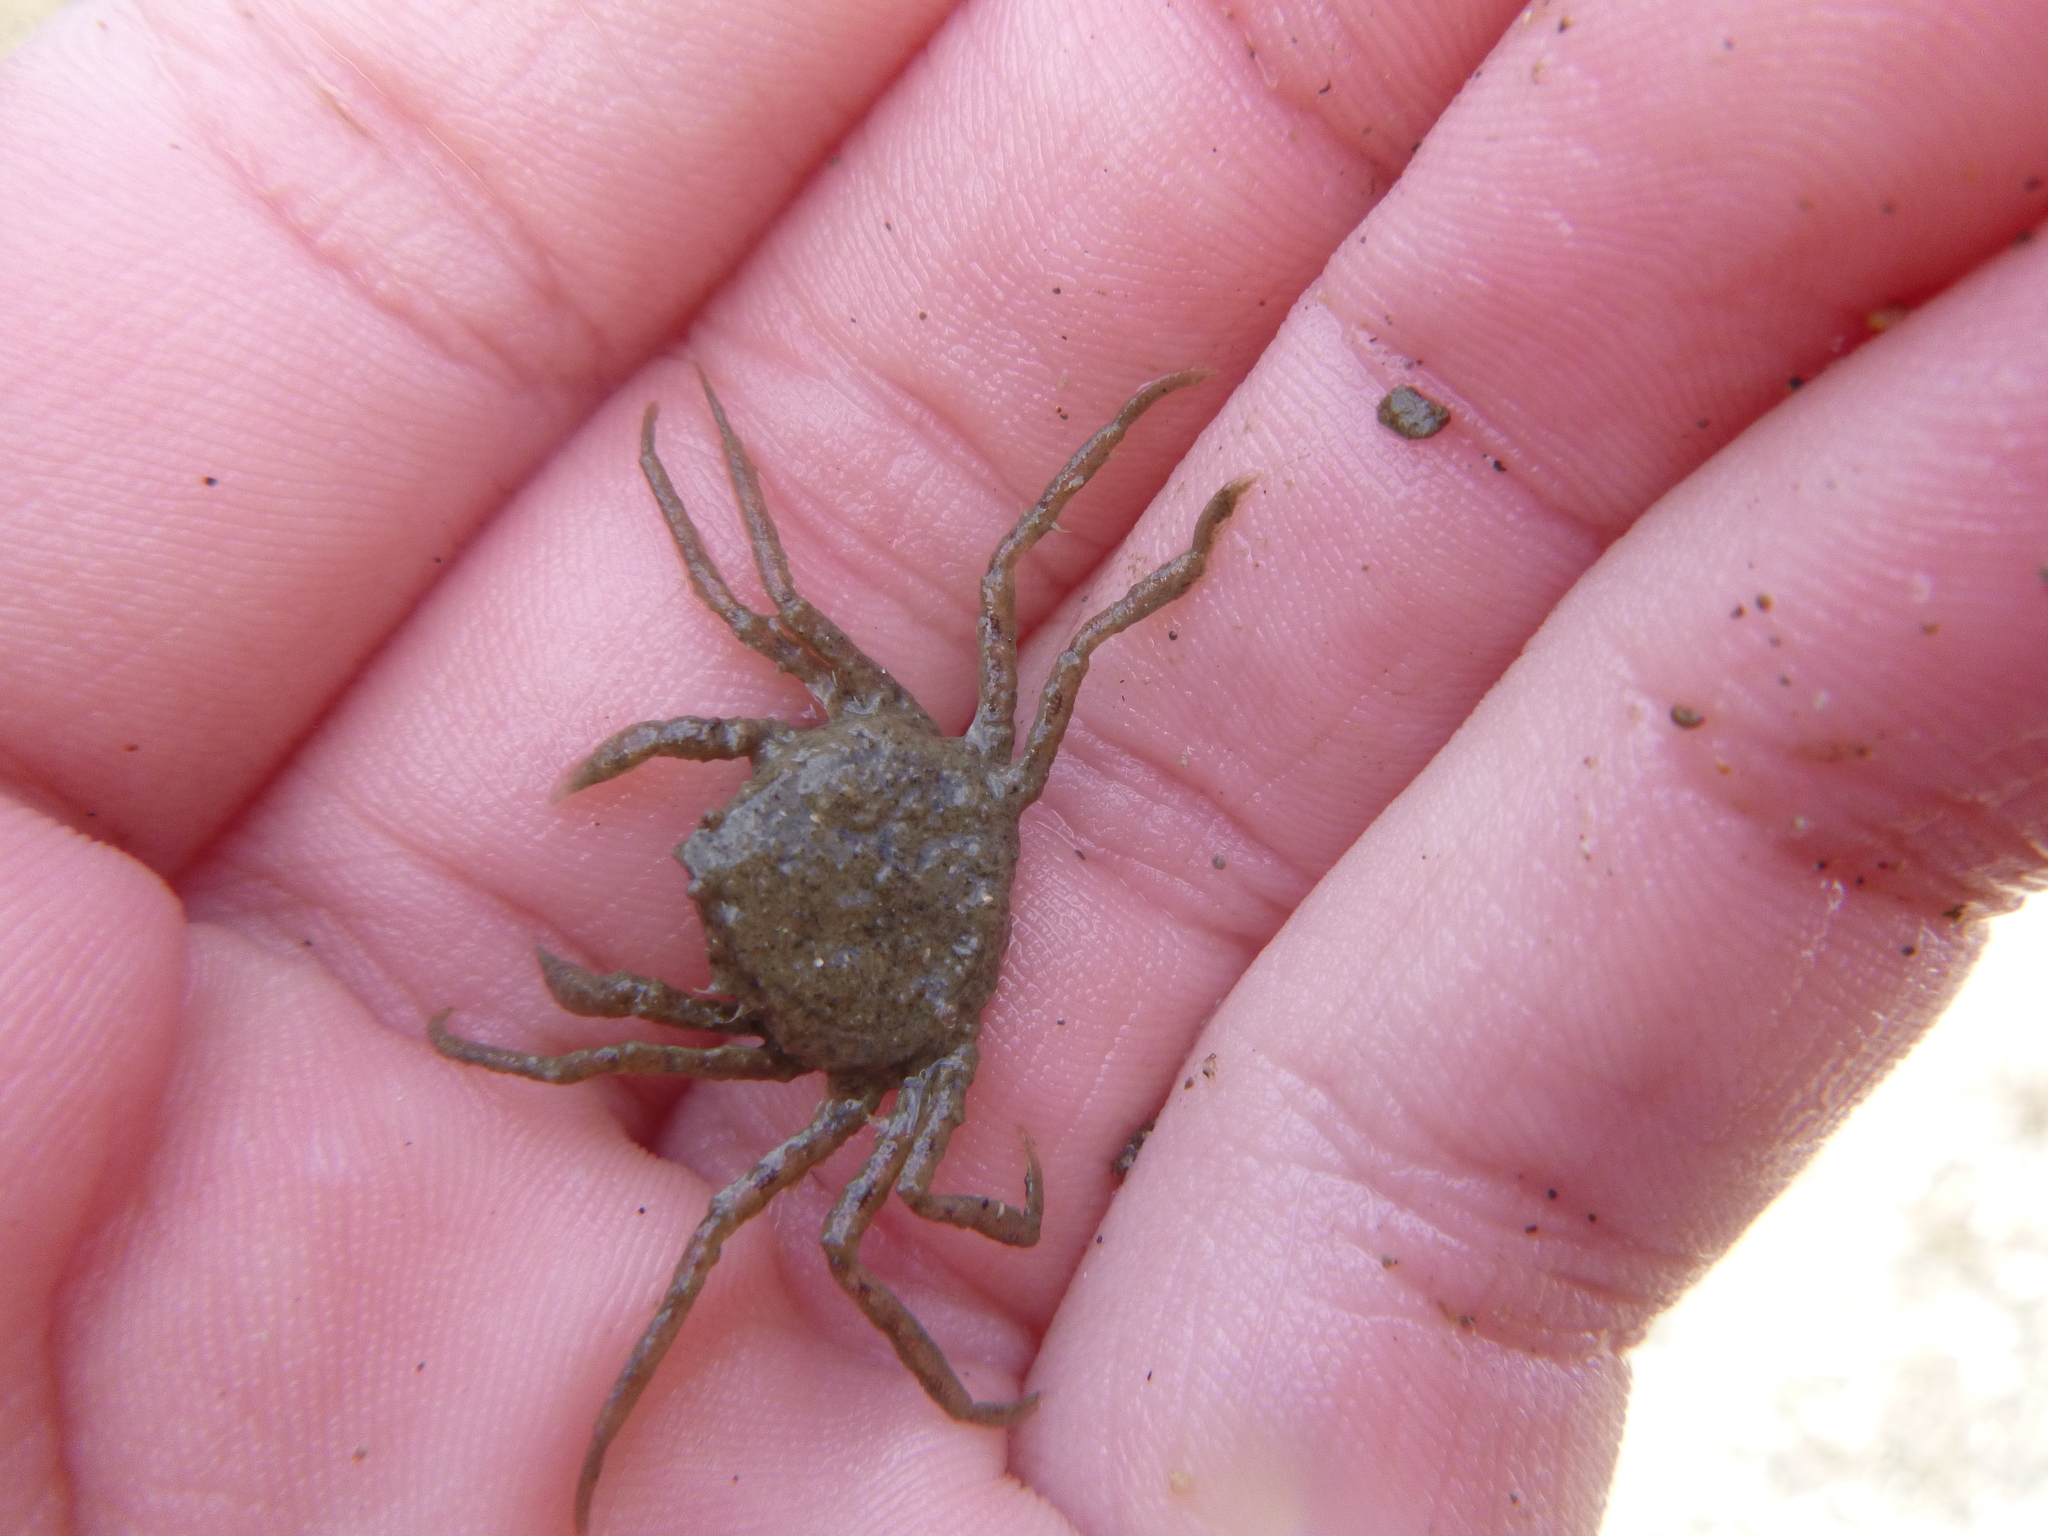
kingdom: Animalia
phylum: Arthropoda
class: Malacostraca
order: Decapoda
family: Hymenosomatidae
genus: Halicarcinus
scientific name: Halicarcinus whitei
